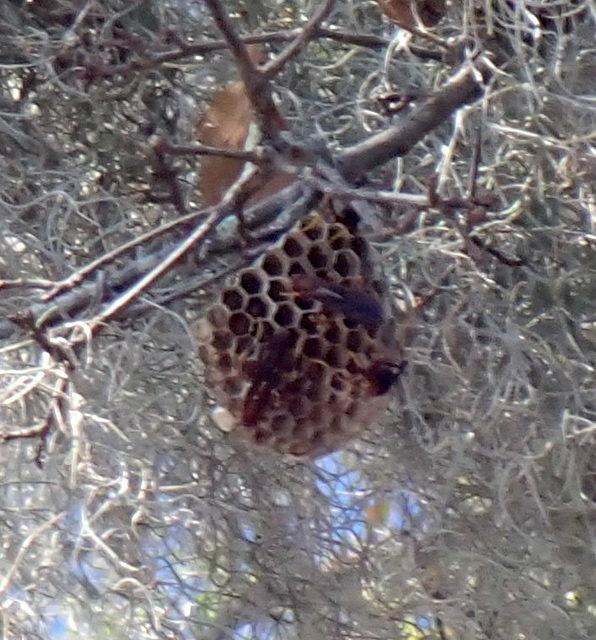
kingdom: Animalia
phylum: Arthropoda
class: Insecta
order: Hymenoptera
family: Eumenidae
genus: Polistes
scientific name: Polistes
